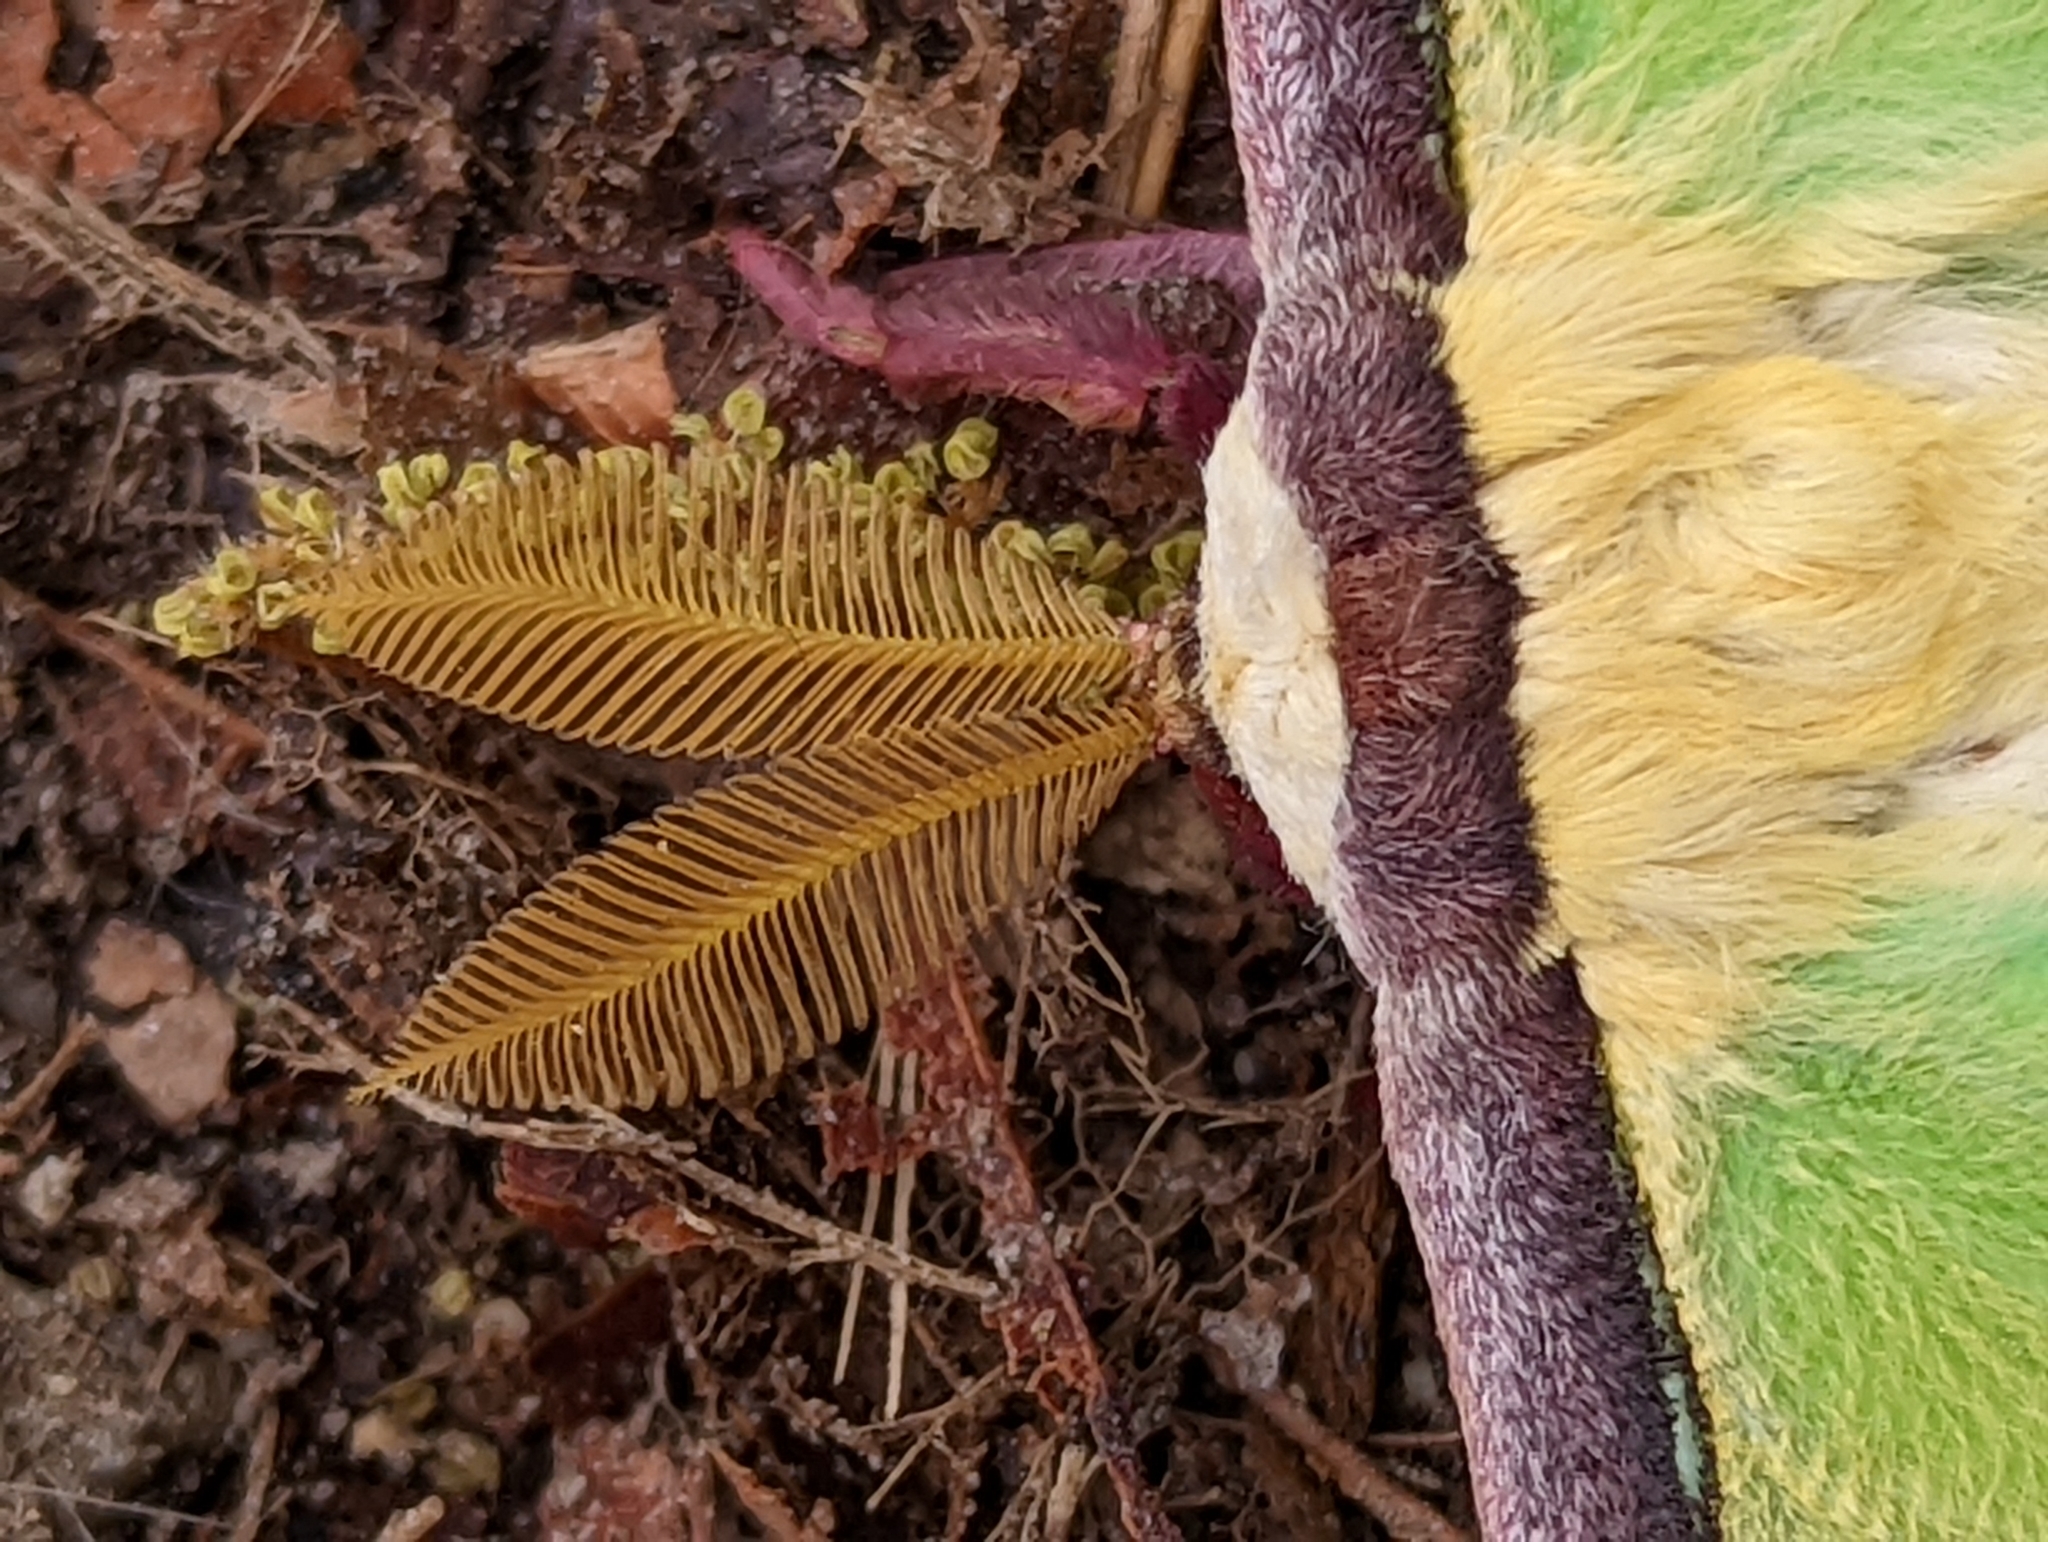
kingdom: Animalia
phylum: Arthropoda
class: Insecta
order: Lepidoptera
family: Saturniidae
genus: Actias
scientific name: Actias luna
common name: Luna moth
